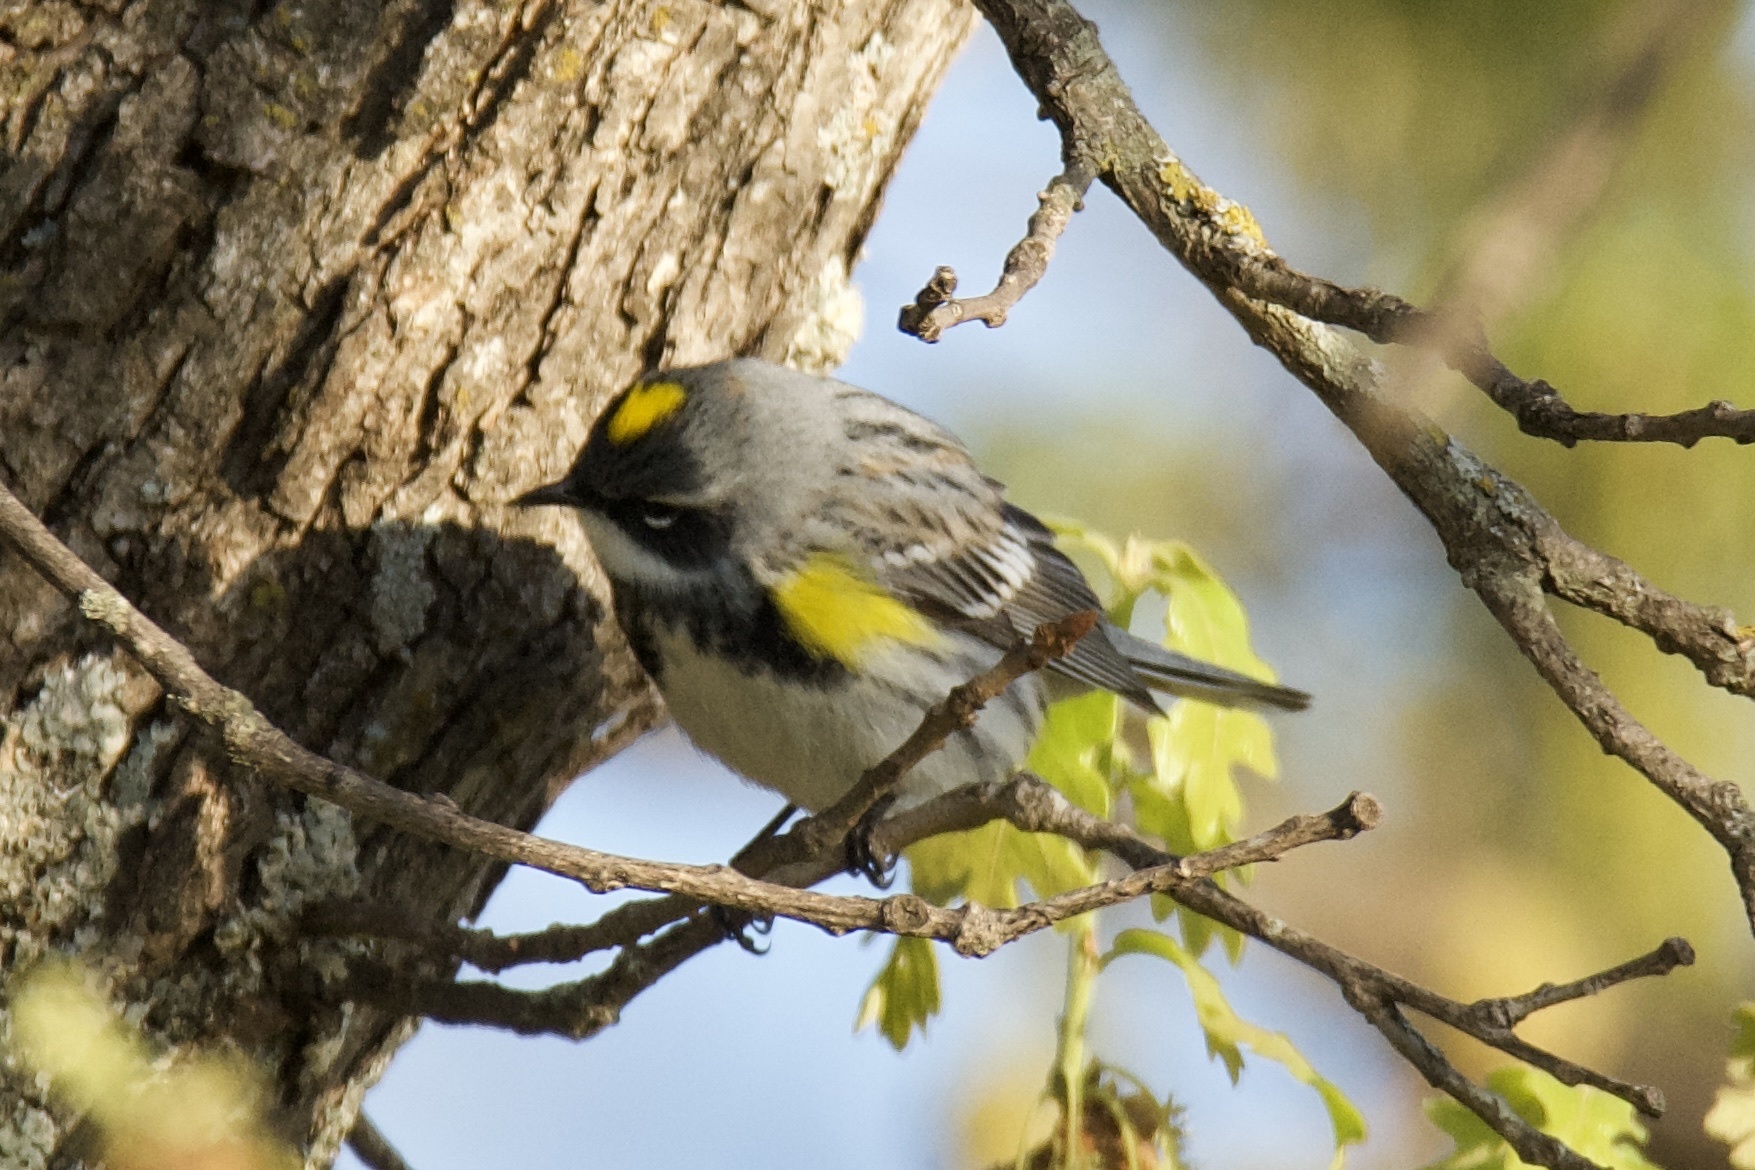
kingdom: Animalia
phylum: Chordata
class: Aves
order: Passeriformes
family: Parulidae
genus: Setophaga
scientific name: Setophaga coronata
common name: Myrtle warbler
